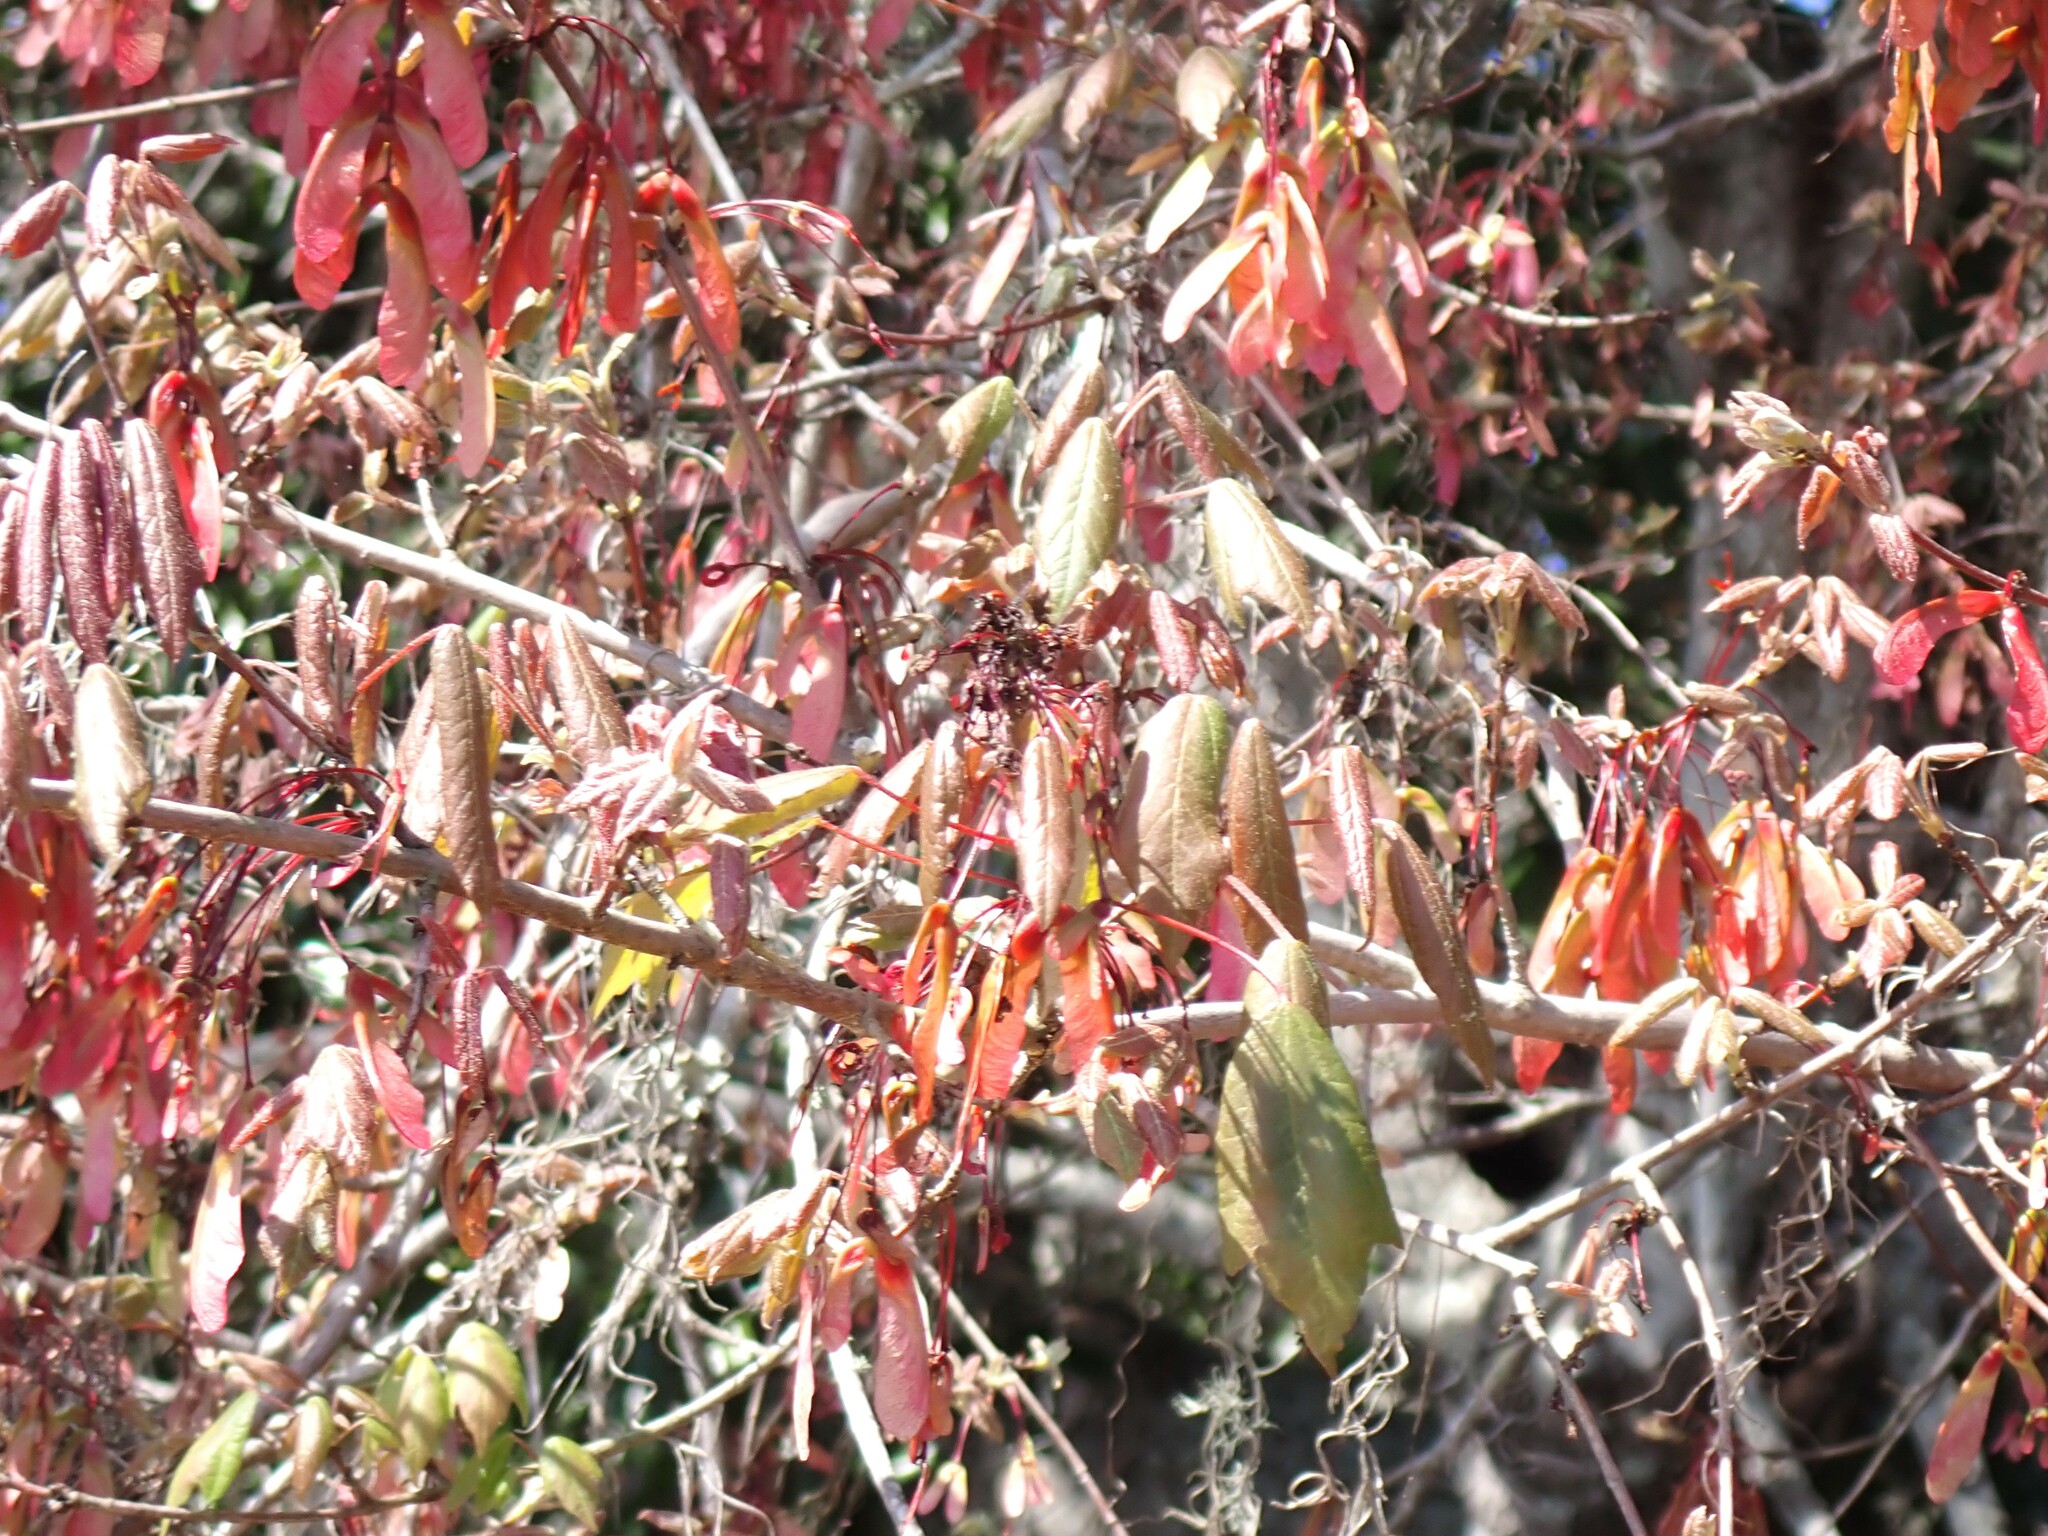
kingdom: Plantae
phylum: Tracheophyta
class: Magnoliopsida
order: Sapindales
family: Sapindaceae
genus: Acer
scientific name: Acer rubrum
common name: Red maple
